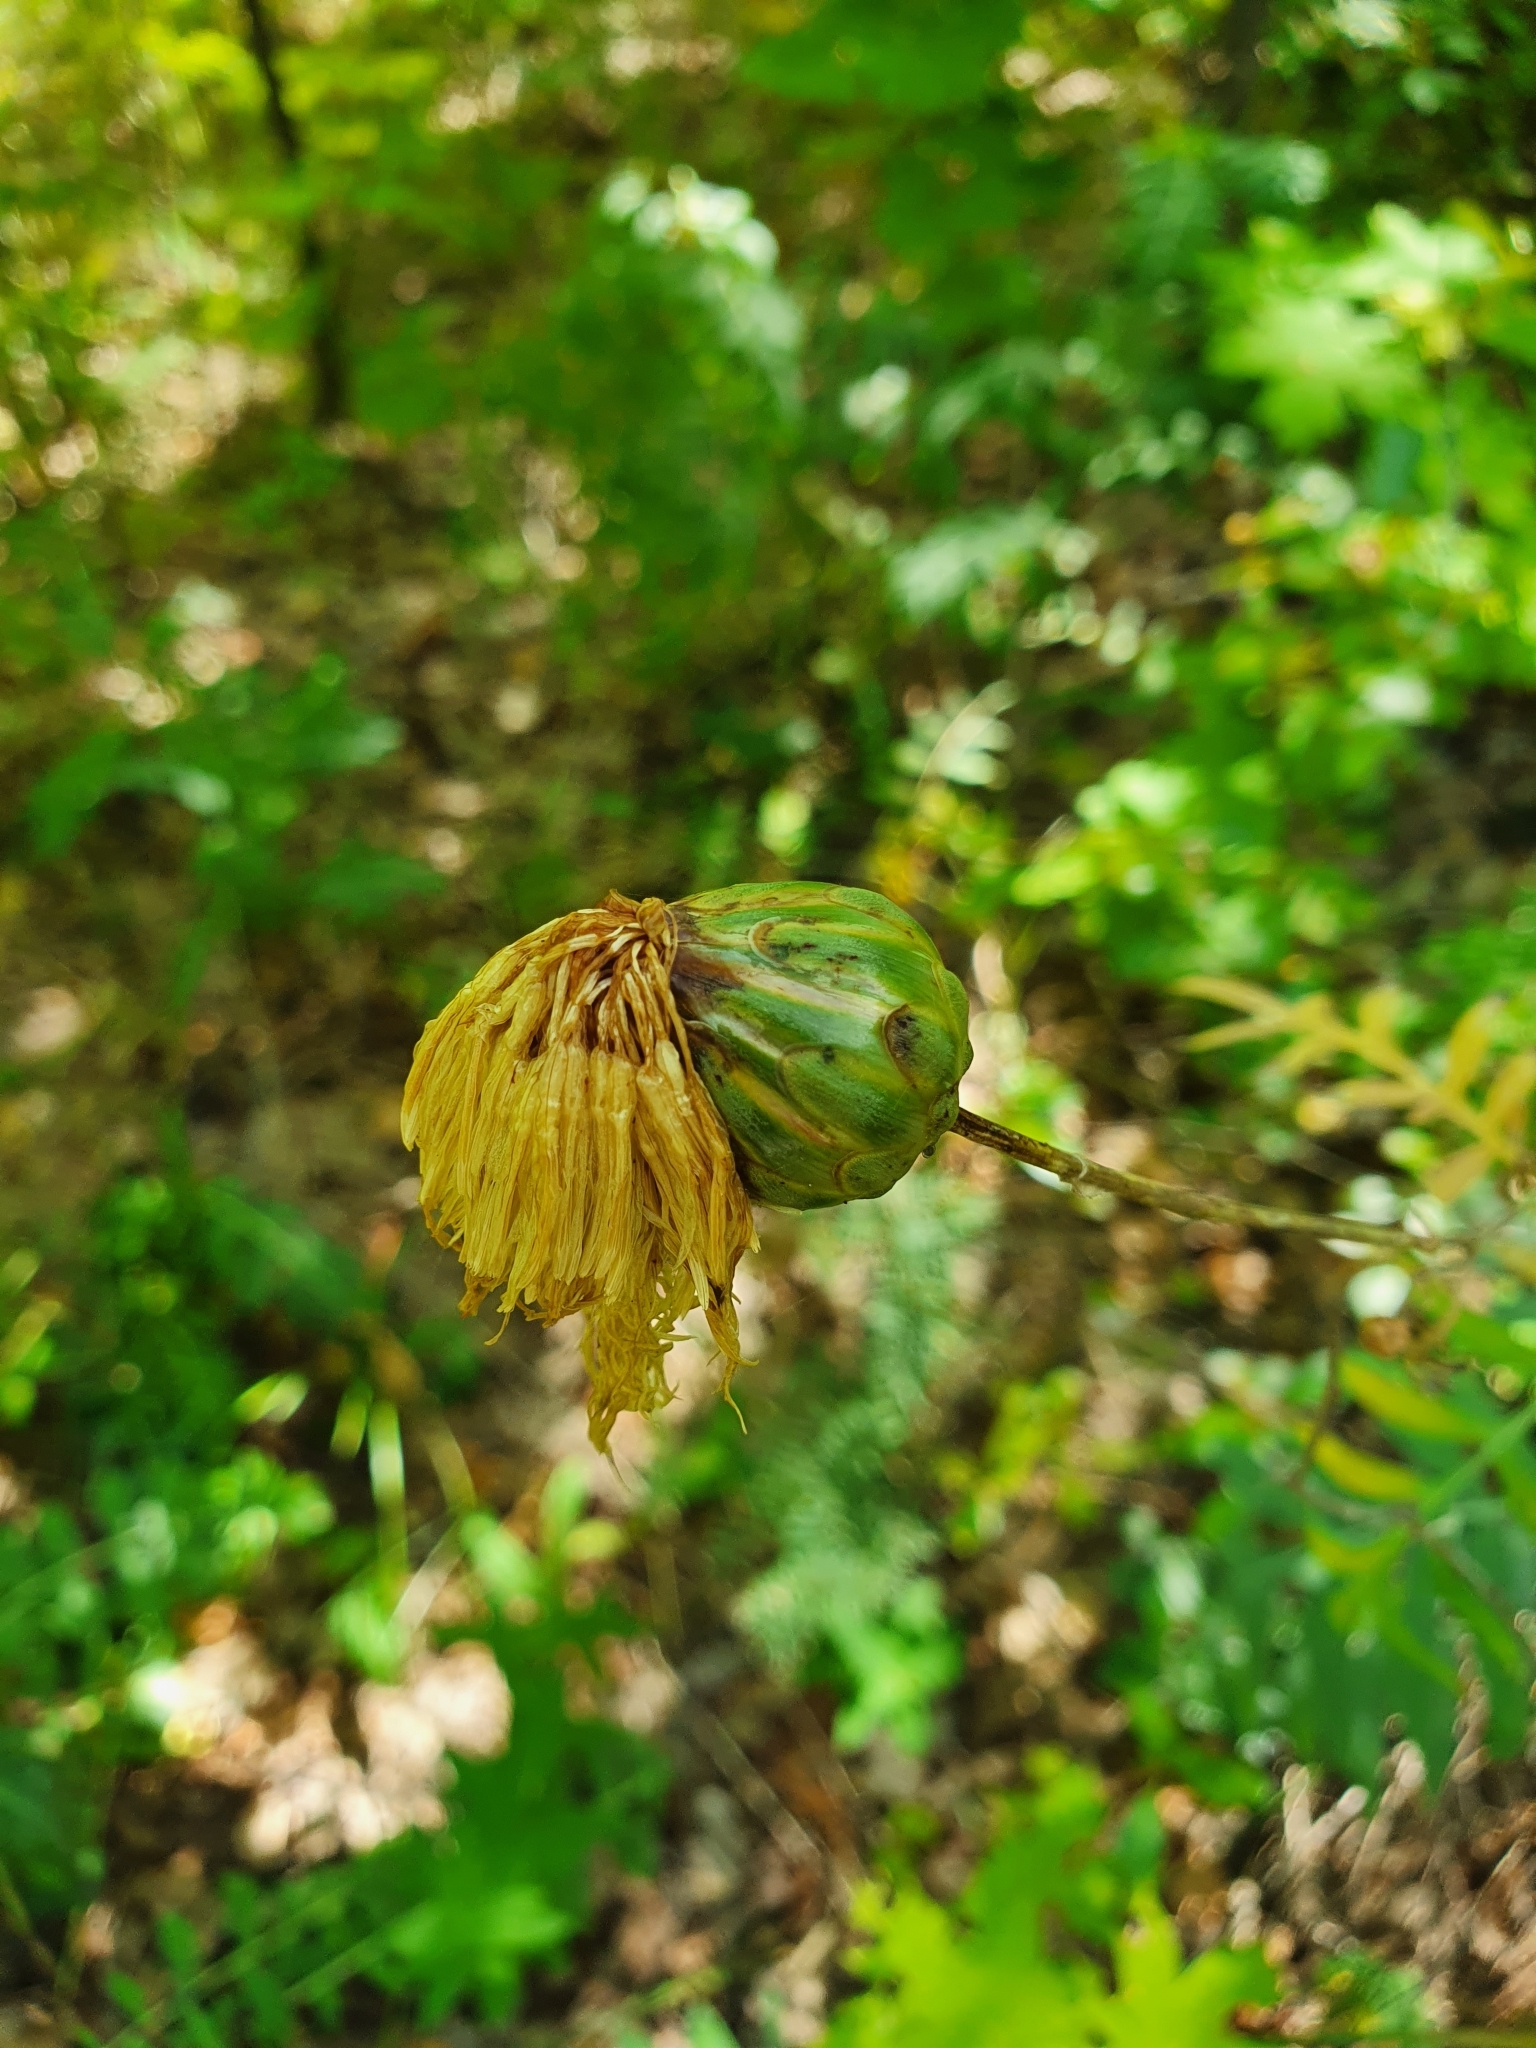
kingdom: Plantae
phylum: Tracheophyta
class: Magnoliopsida
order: Asterales
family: Asteraceae
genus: Rhaponticoides
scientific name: Rhaponticoides ruthenica
